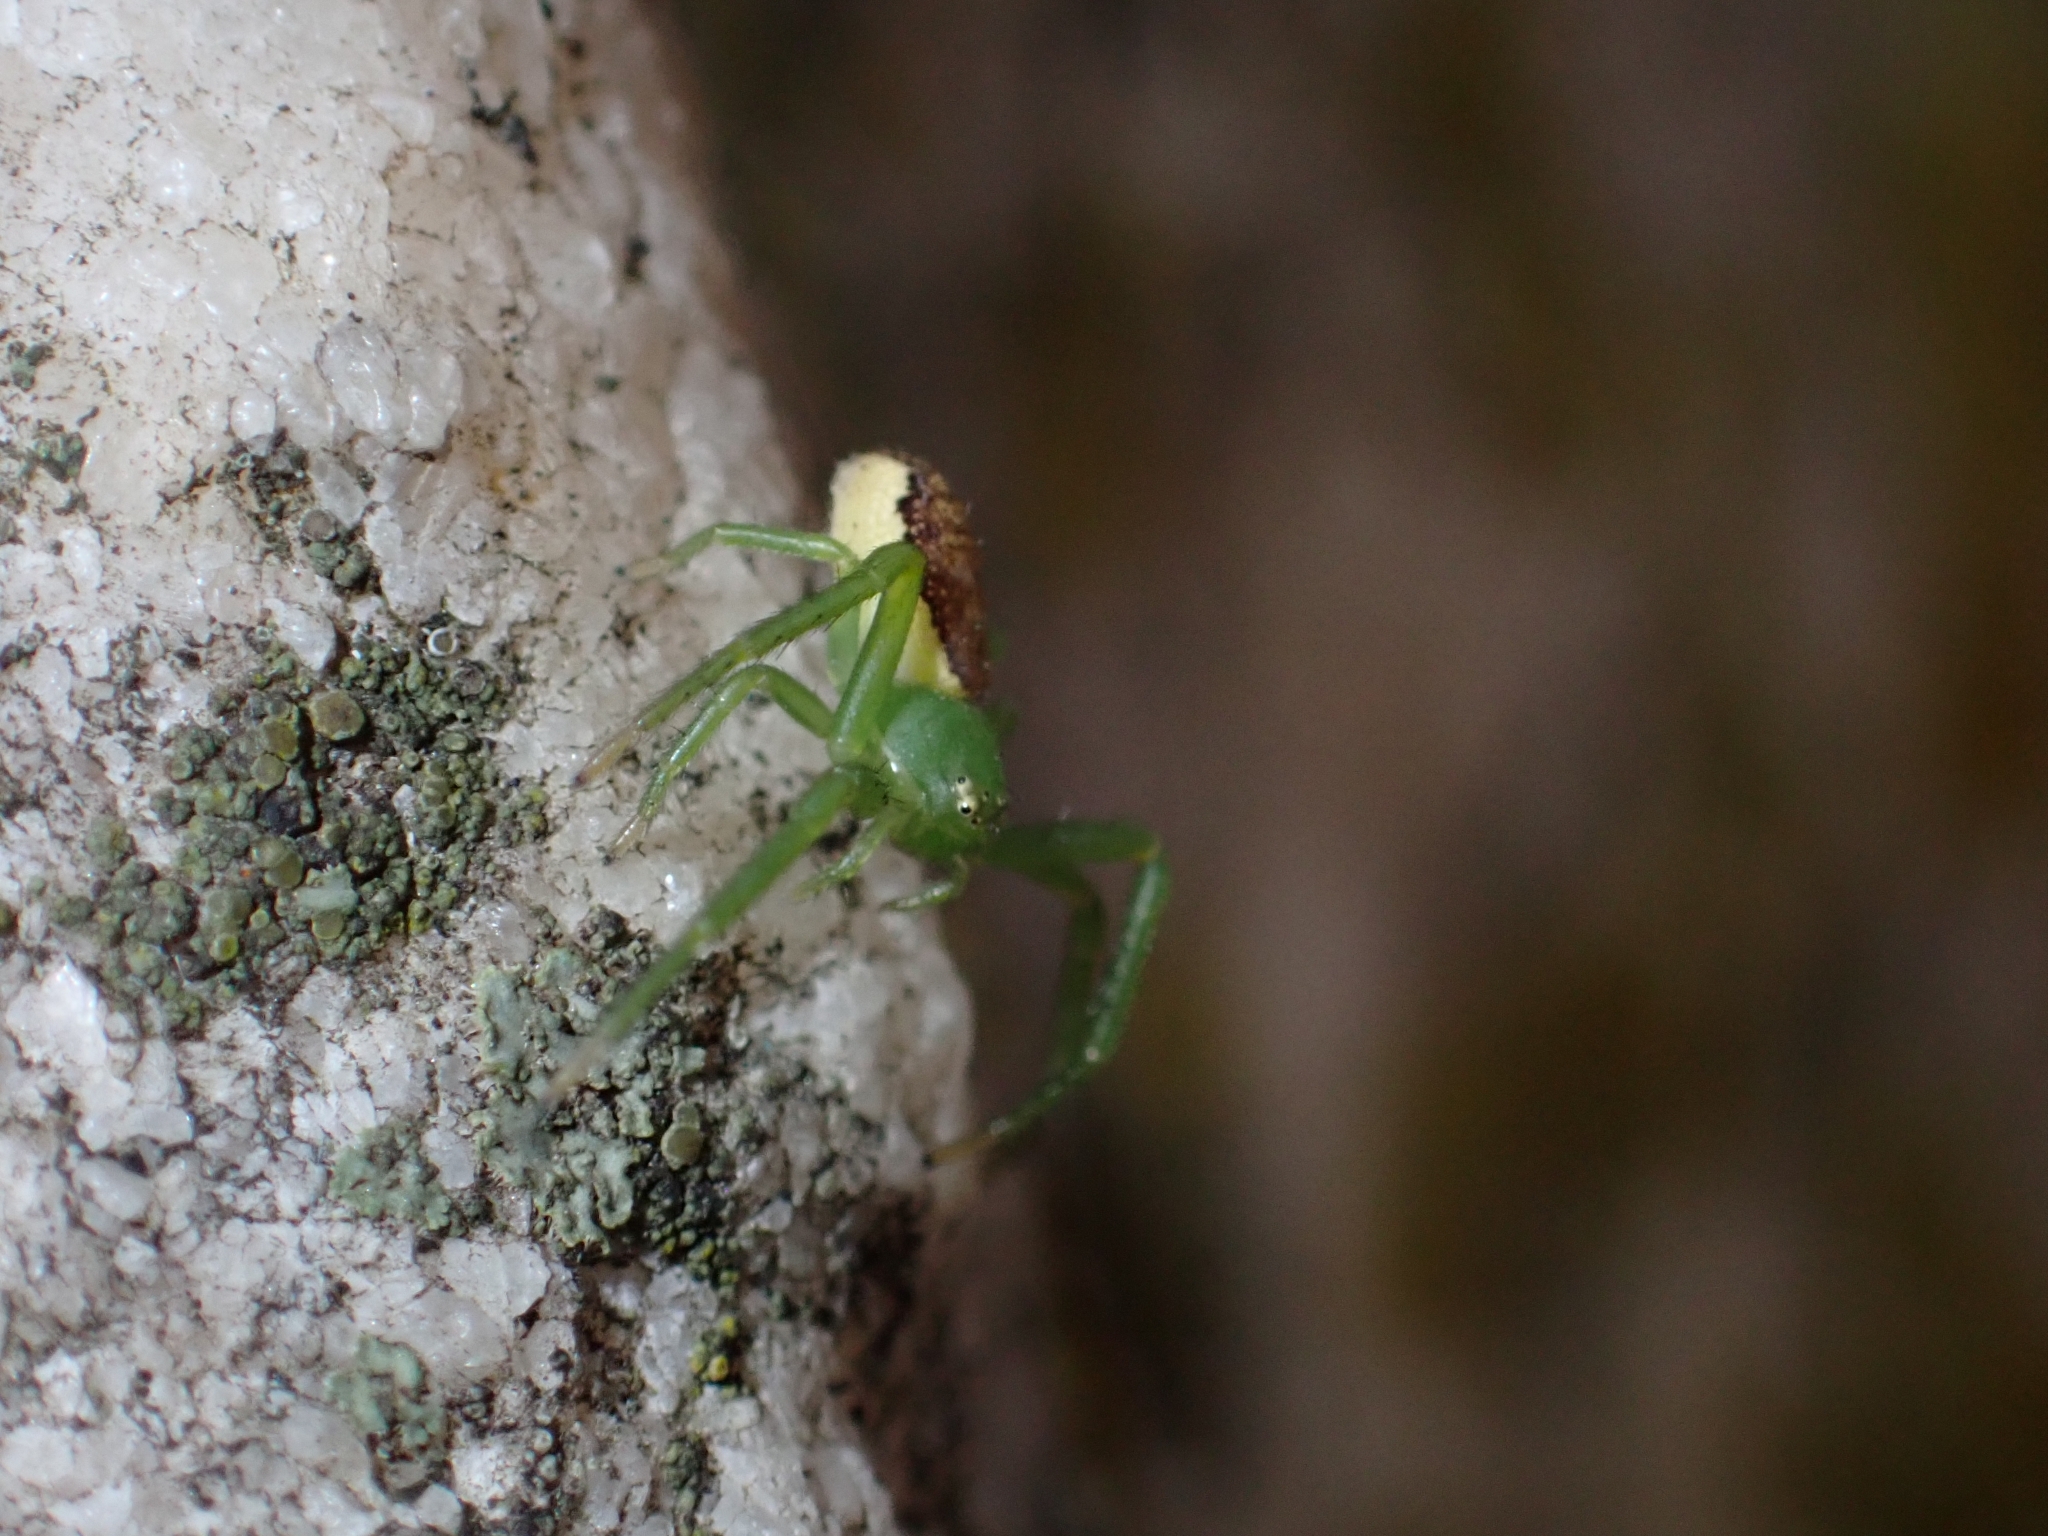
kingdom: Animalia
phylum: Arthropoda
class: Arachnida
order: Araneae
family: Thomisidae
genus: Diaea
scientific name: Diaea dorsata
